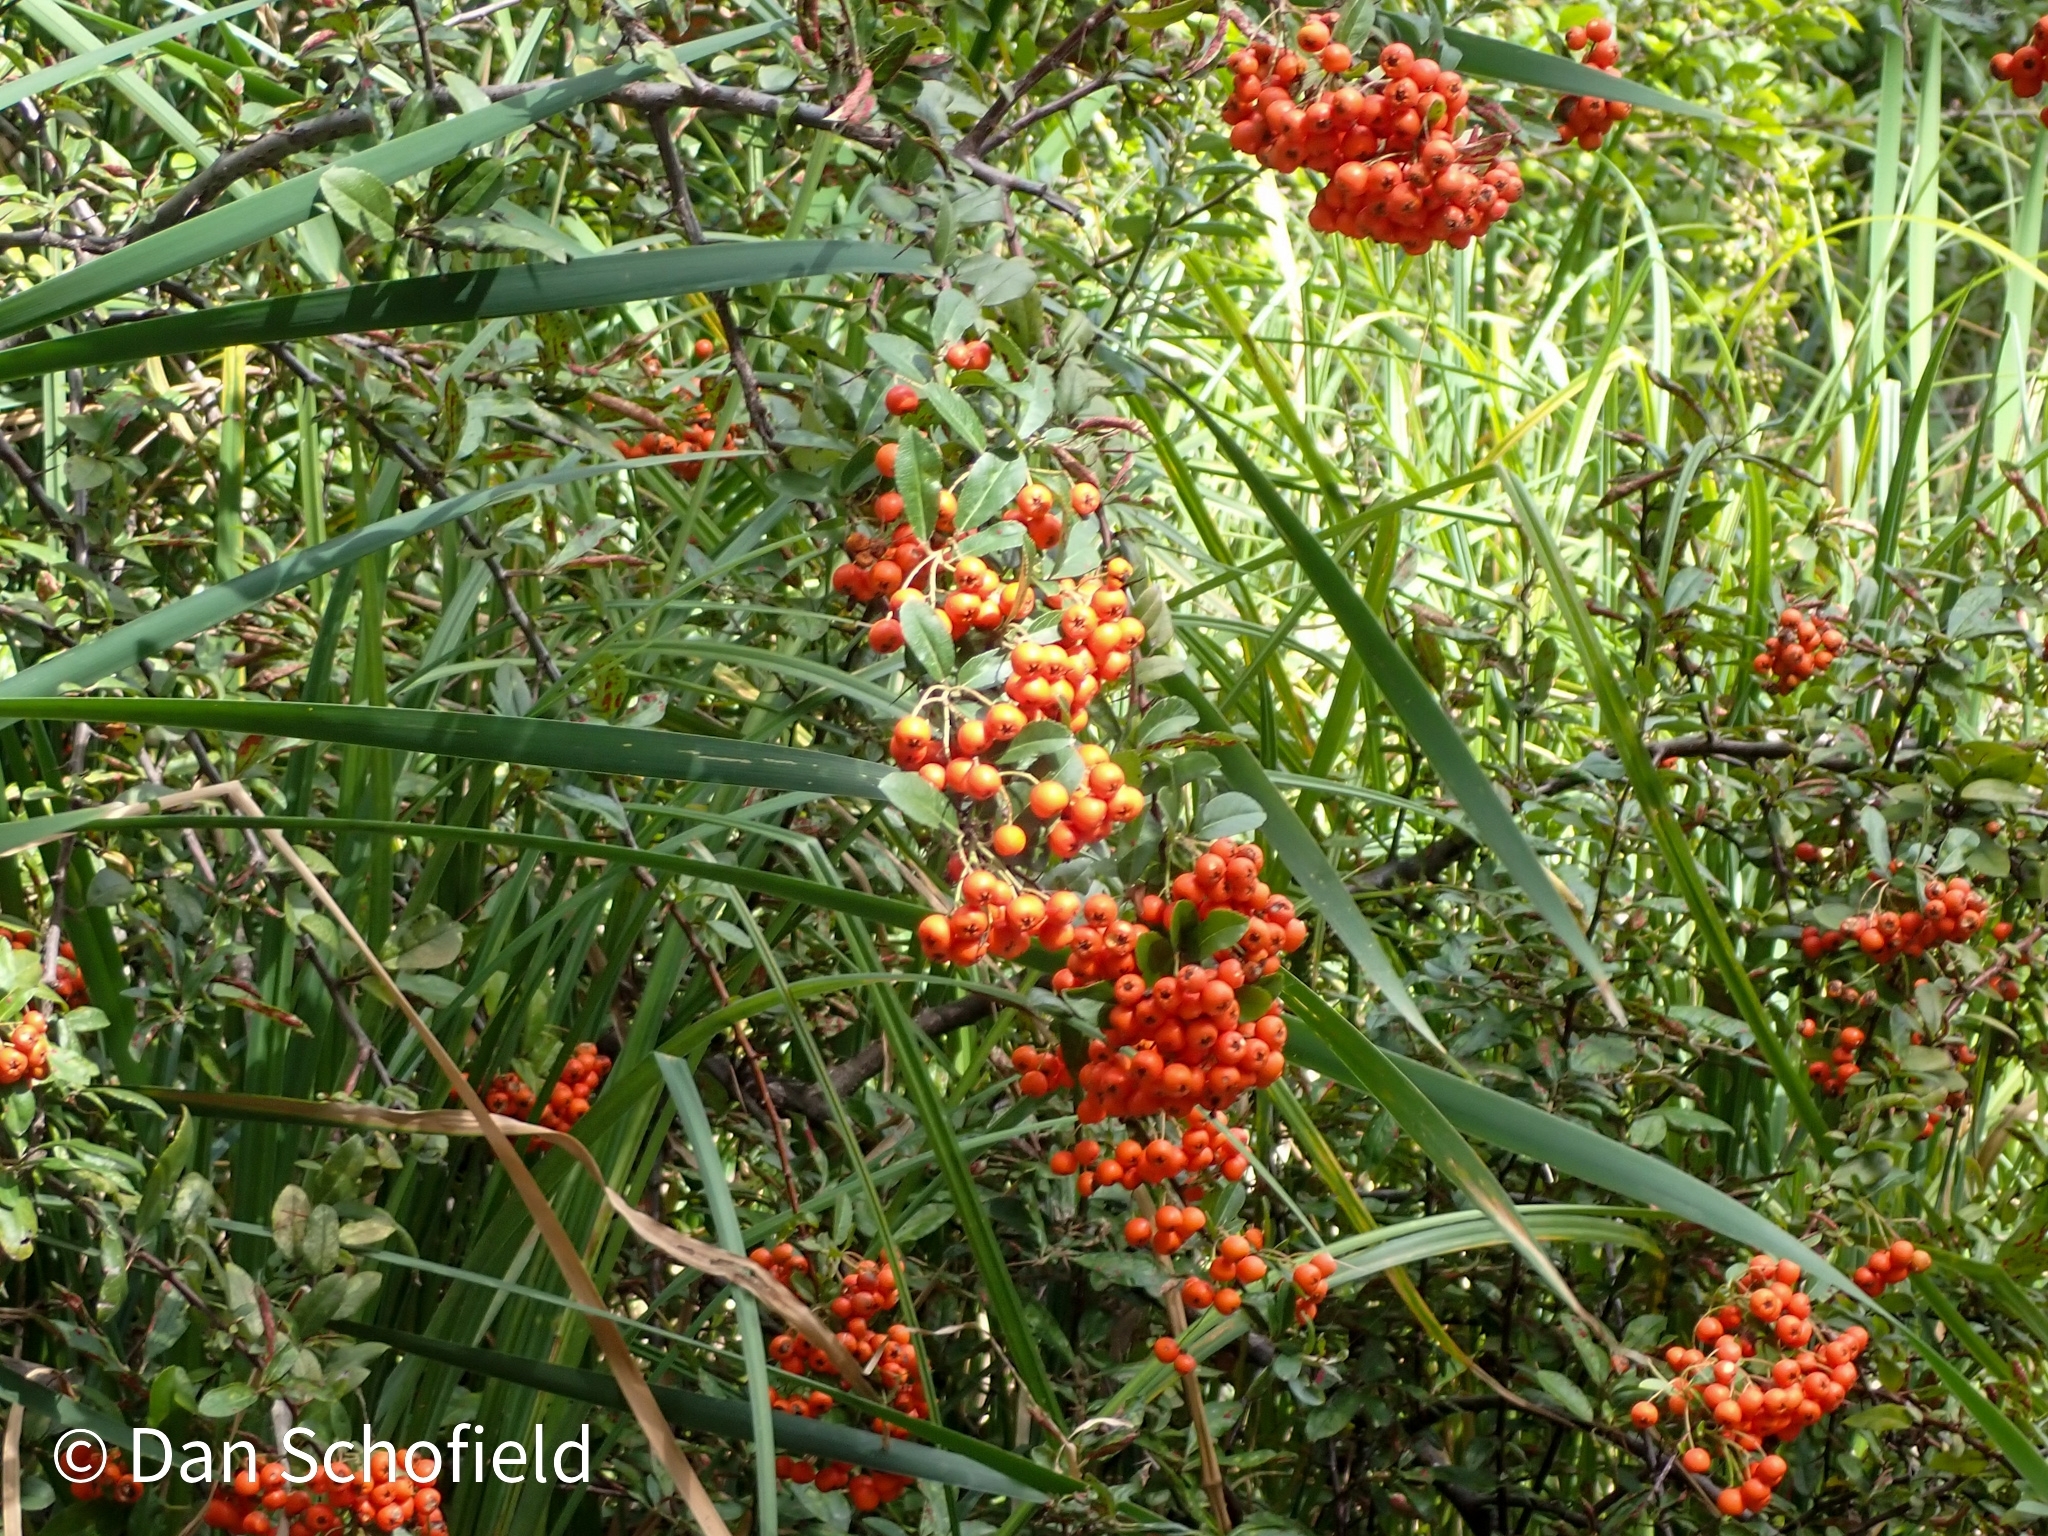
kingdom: Plantae
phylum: Tracheophyta
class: Magnoliopsida
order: Rosales
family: Rosaceae
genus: Pyracantha
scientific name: Pyracantha coccinea
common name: Firethorn
